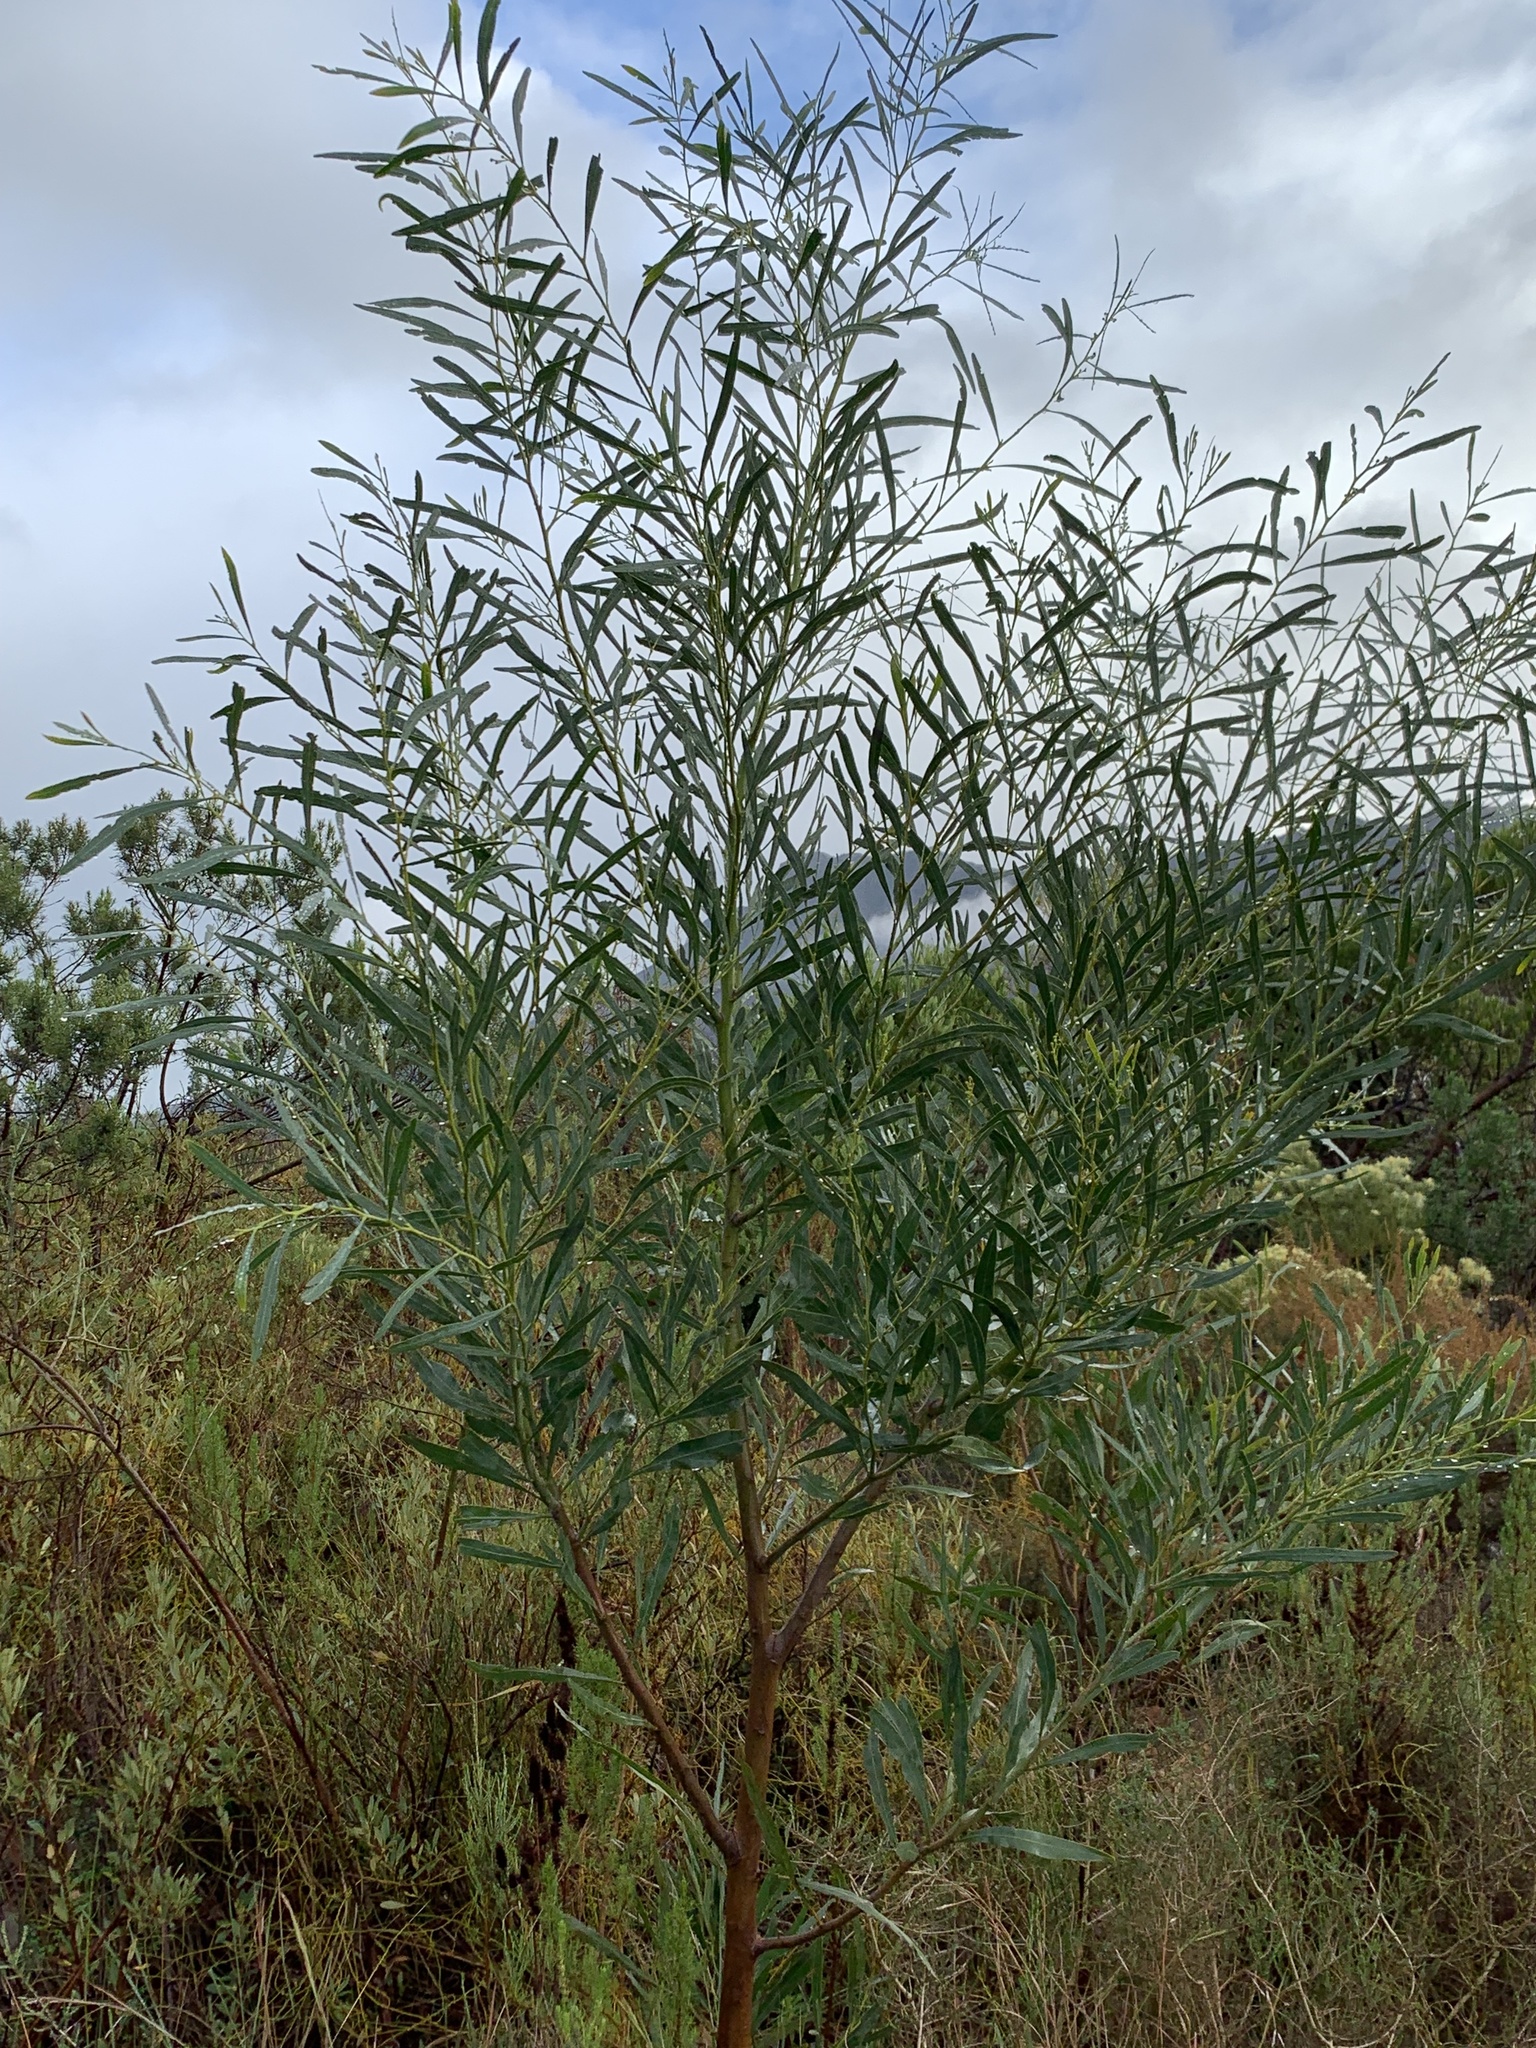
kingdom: Plantae
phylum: Tracheophyta
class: Magnoliopsida
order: Fabales
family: Fabaceae
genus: Acacia
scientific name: Acacia saligna
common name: Orange wattle
